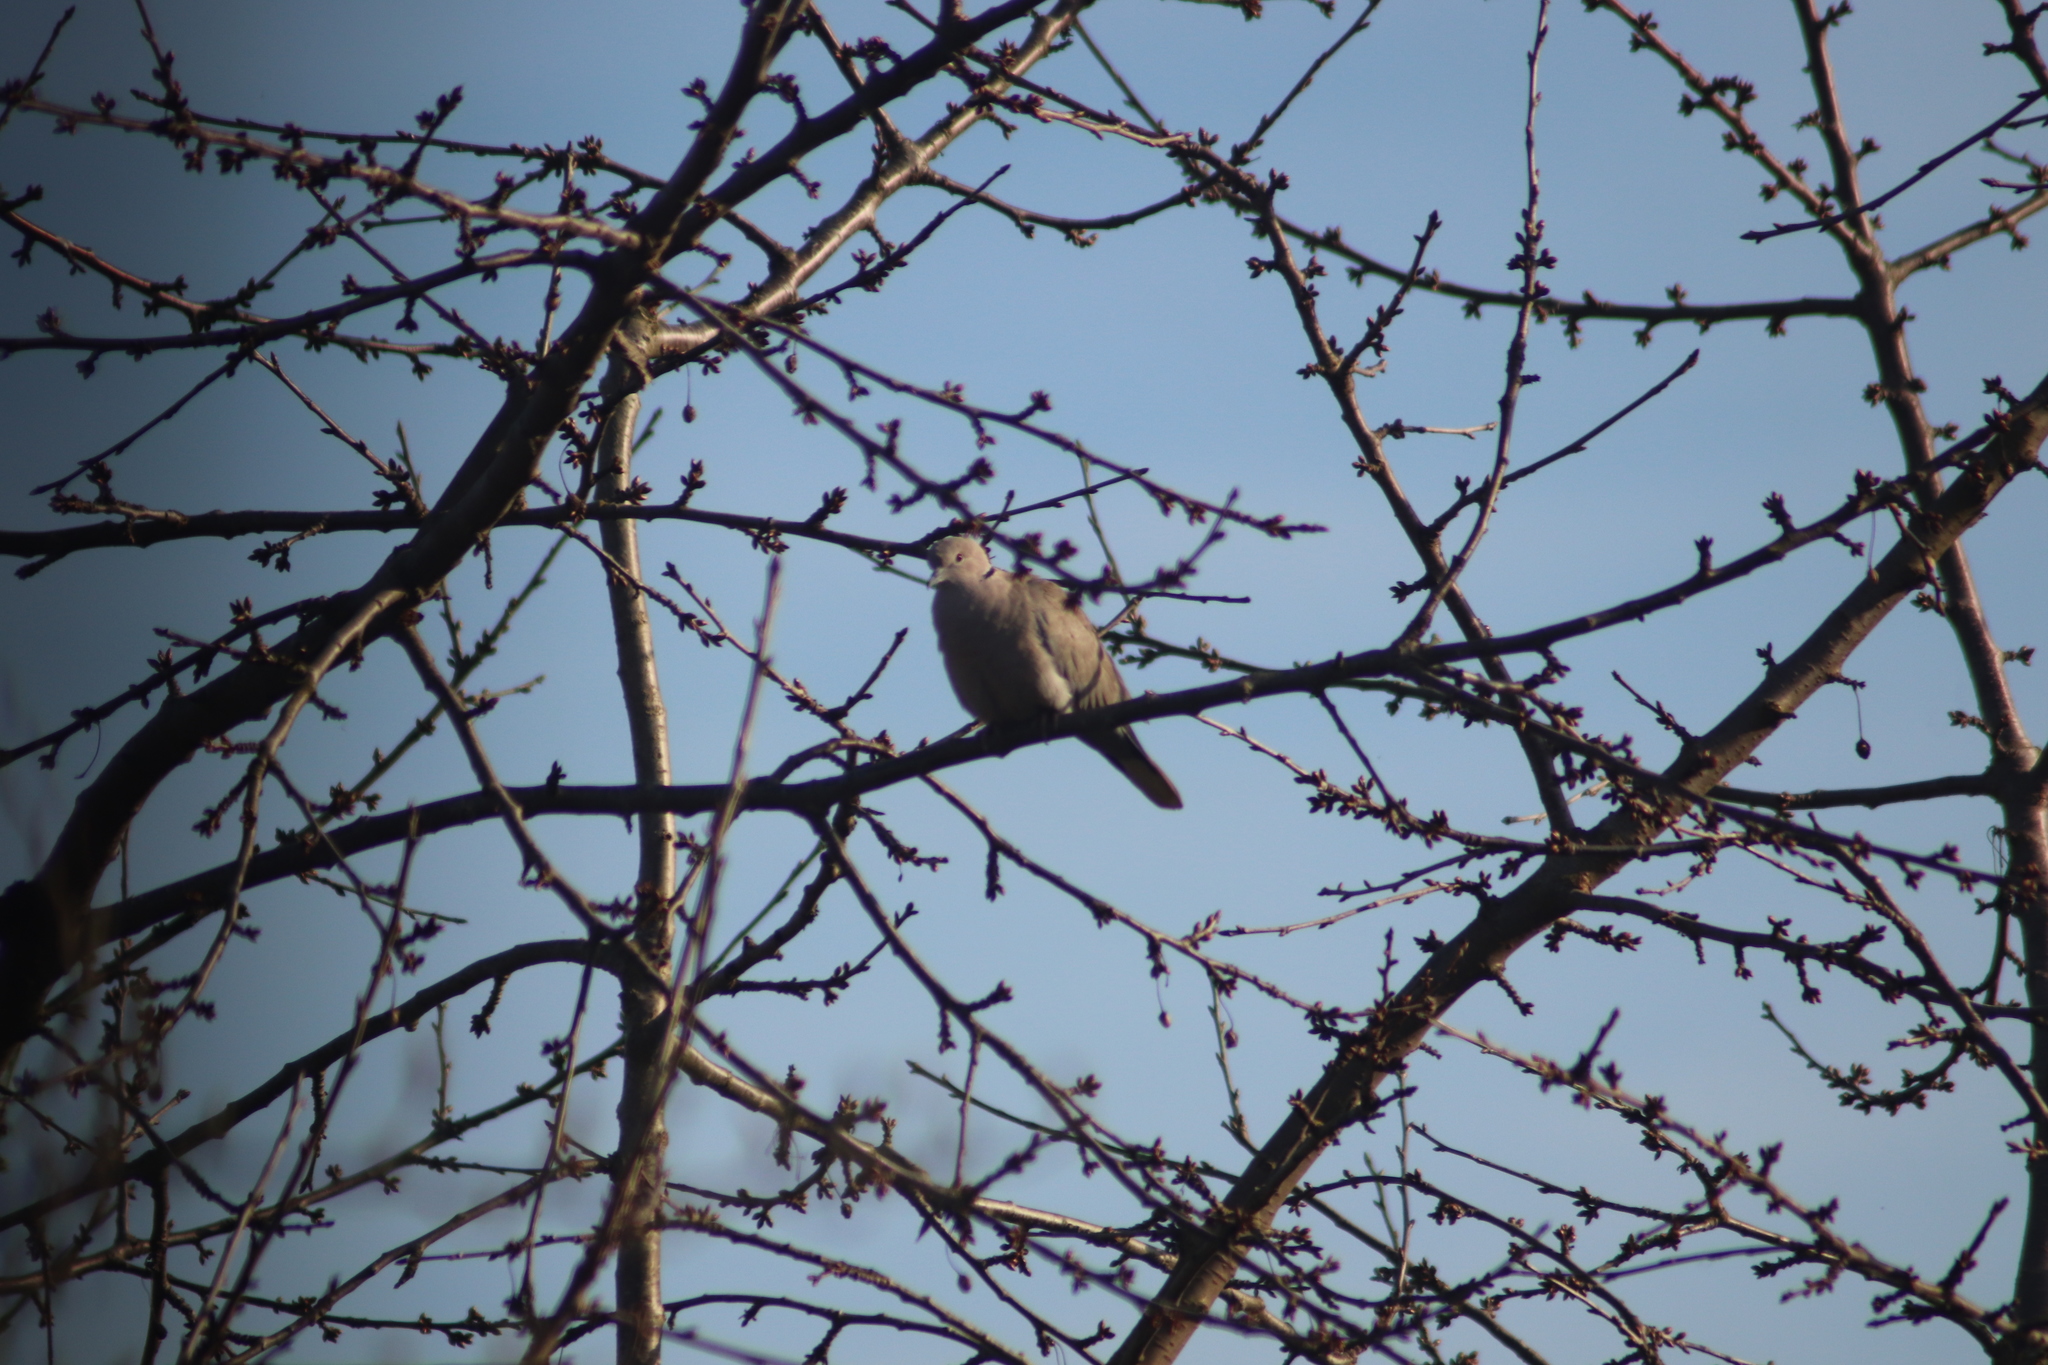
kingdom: Animalia
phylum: Chordata
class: Aves
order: Columbiformes
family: Columbidae
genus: Streptopelia
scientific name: Streptopelia decaocto
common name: Eurasian collared dove
